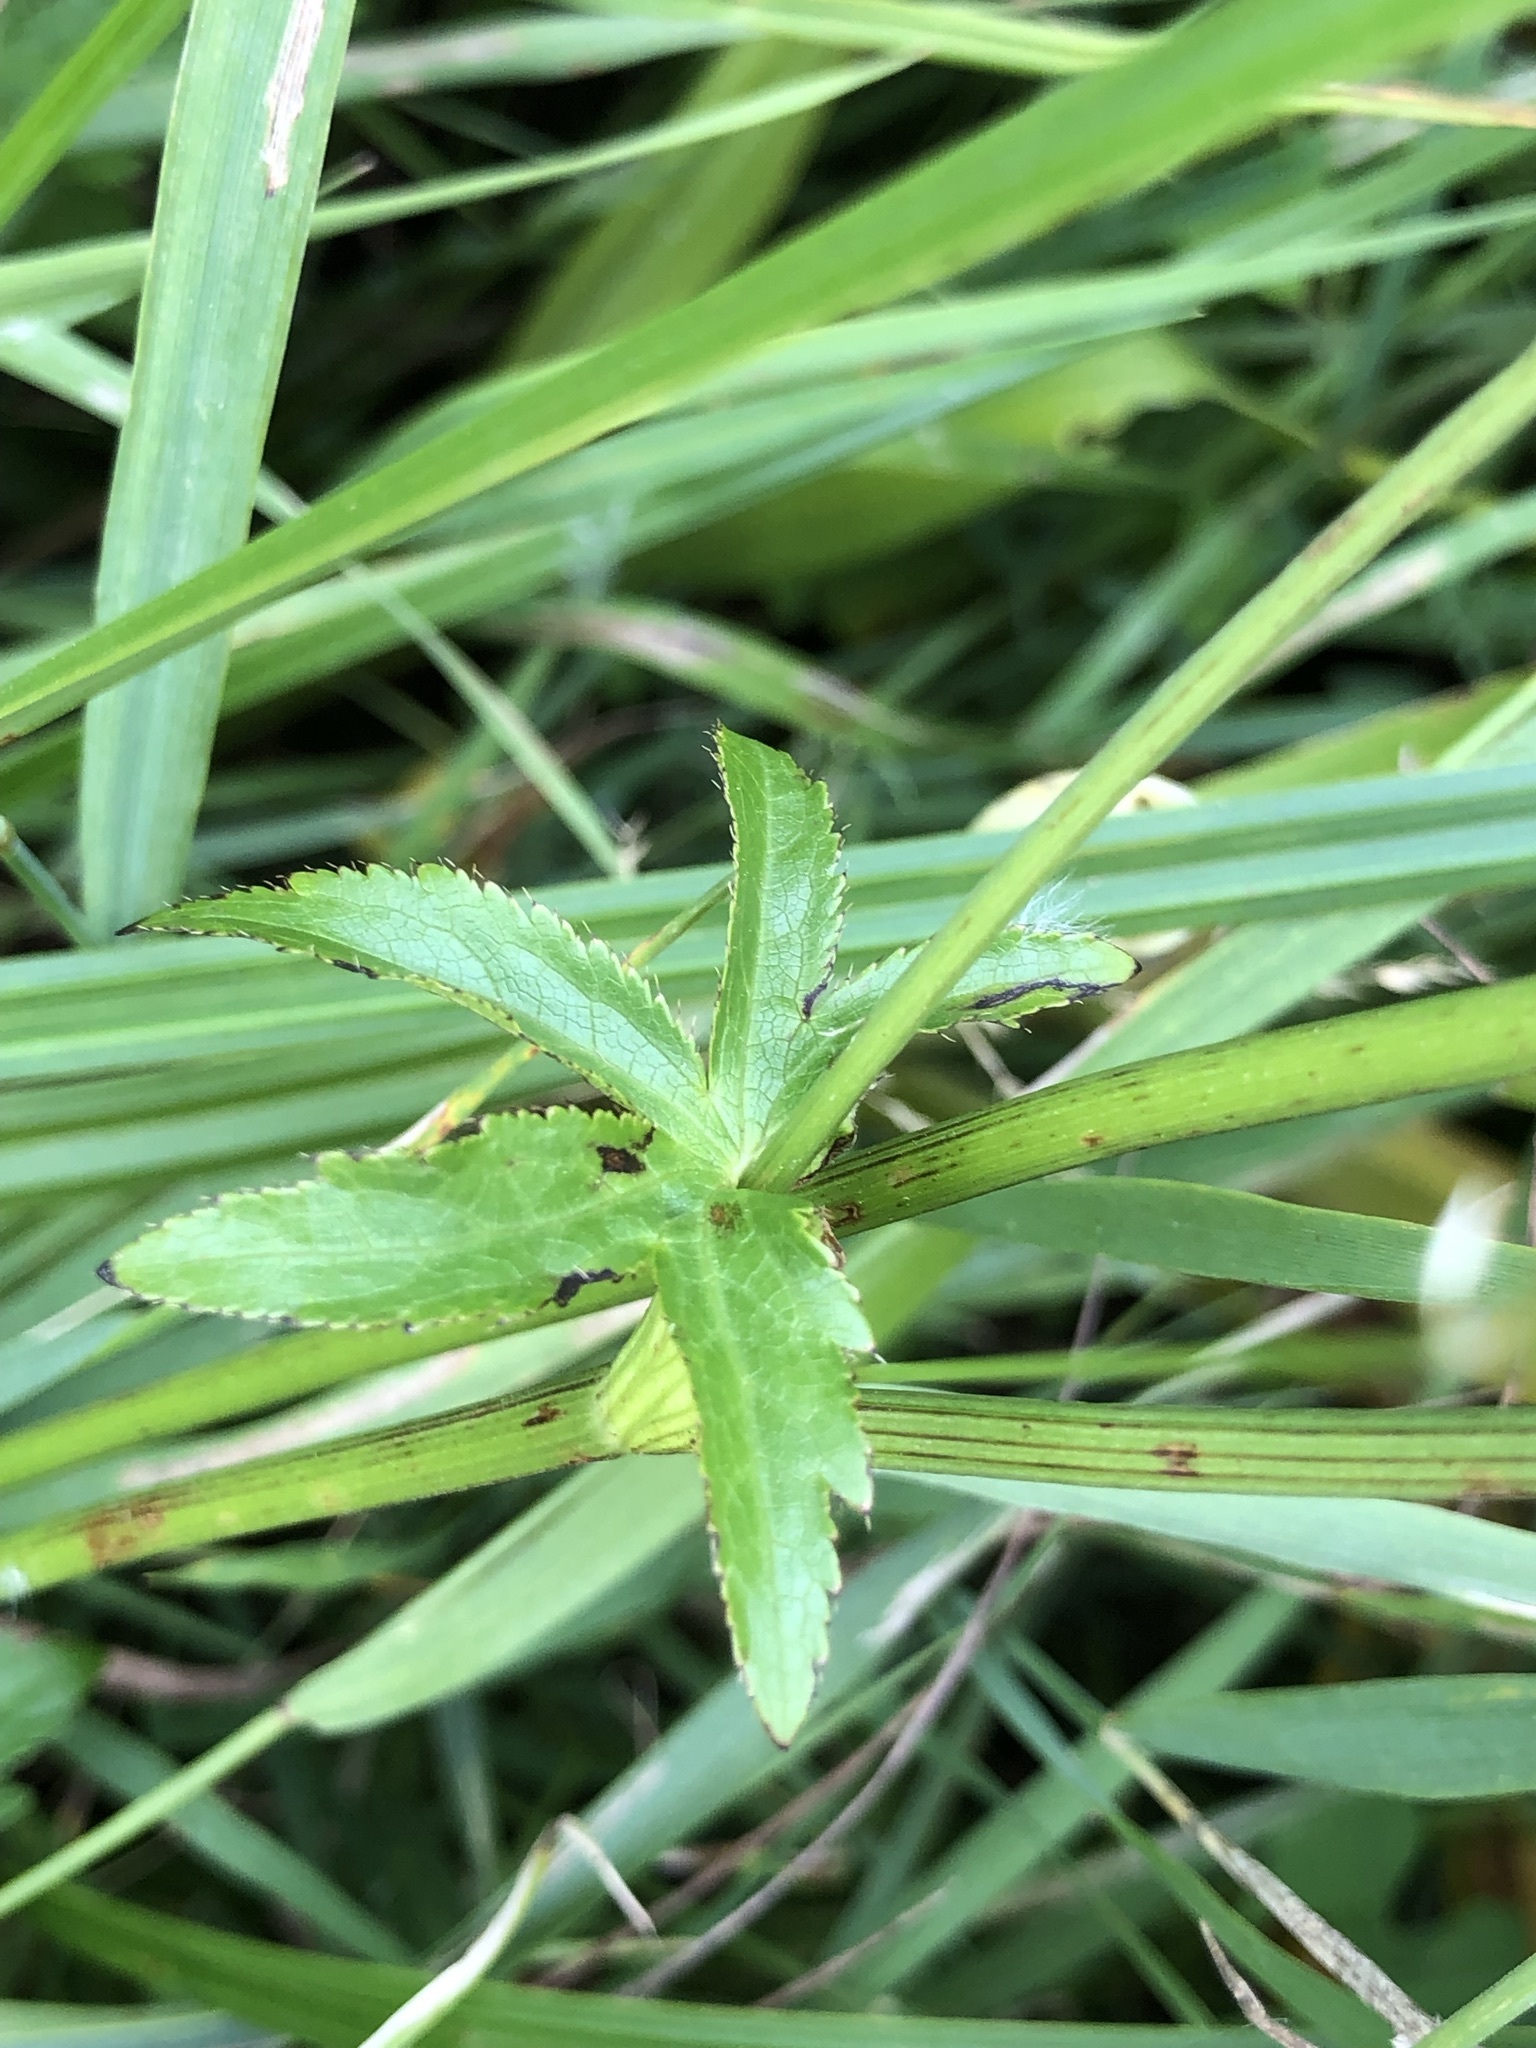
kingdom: Plantae
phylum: Tracheophyta
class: Magnoliopsida
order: Apiales
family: Apiaceae
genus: Astrantia
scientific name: Astrantia major
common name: Greater masterwort
